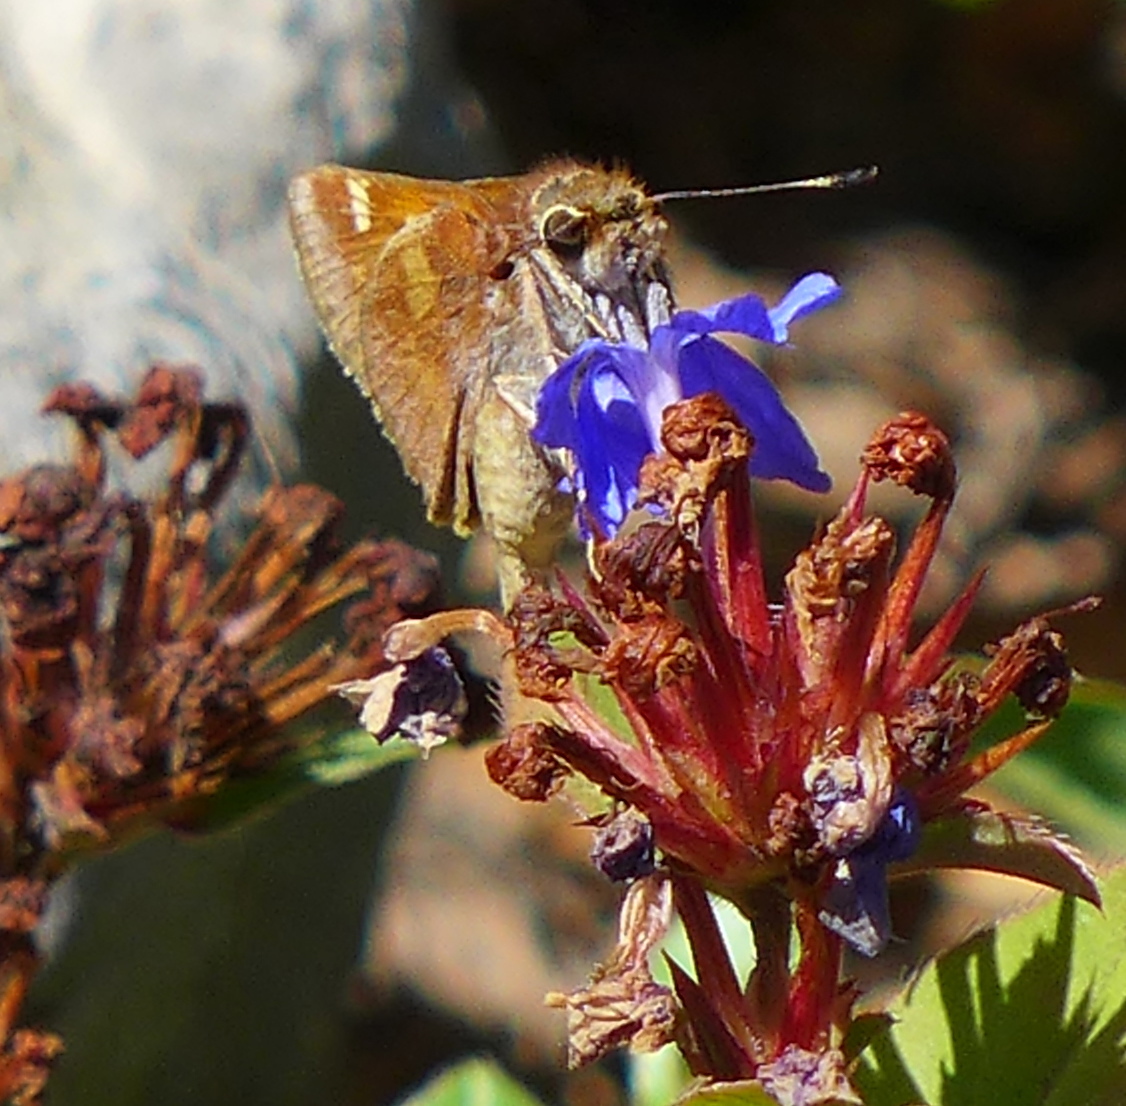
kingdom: Animalia
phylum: Arthropoda
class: Insecta
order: Lepidoptera
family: Hesperiidae
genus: Lon
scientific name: Lon melane
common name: Umber skipper
